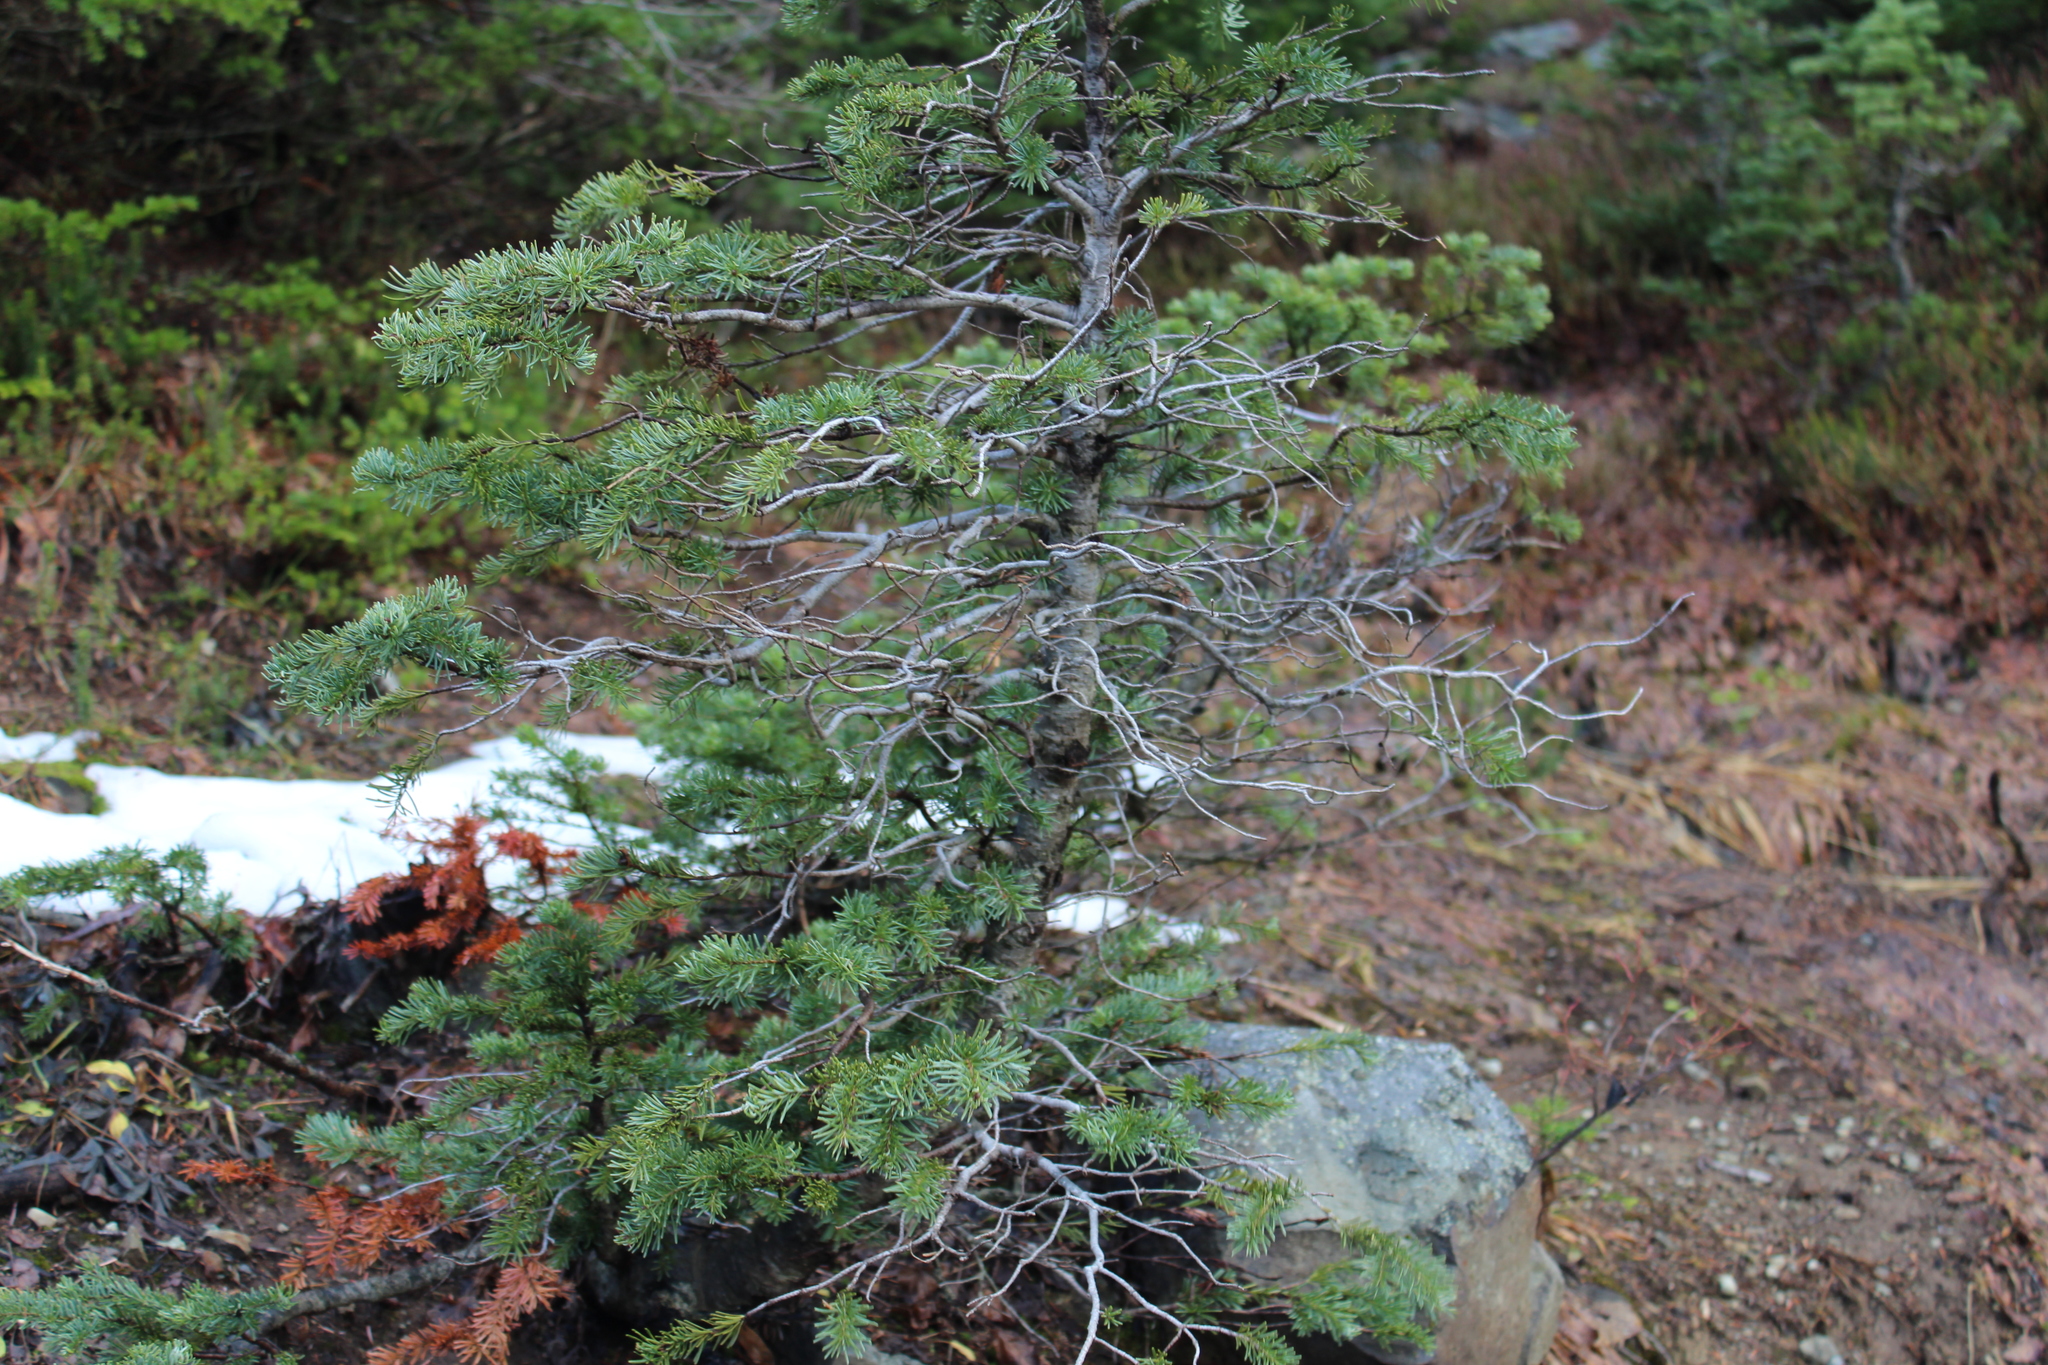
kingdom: Plantae
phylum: Tracheophyta
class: Pinopsida
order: Pinales
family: Pinaceae
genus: Abies
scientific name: Abies lasiocarpa
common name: Subalpine fir
